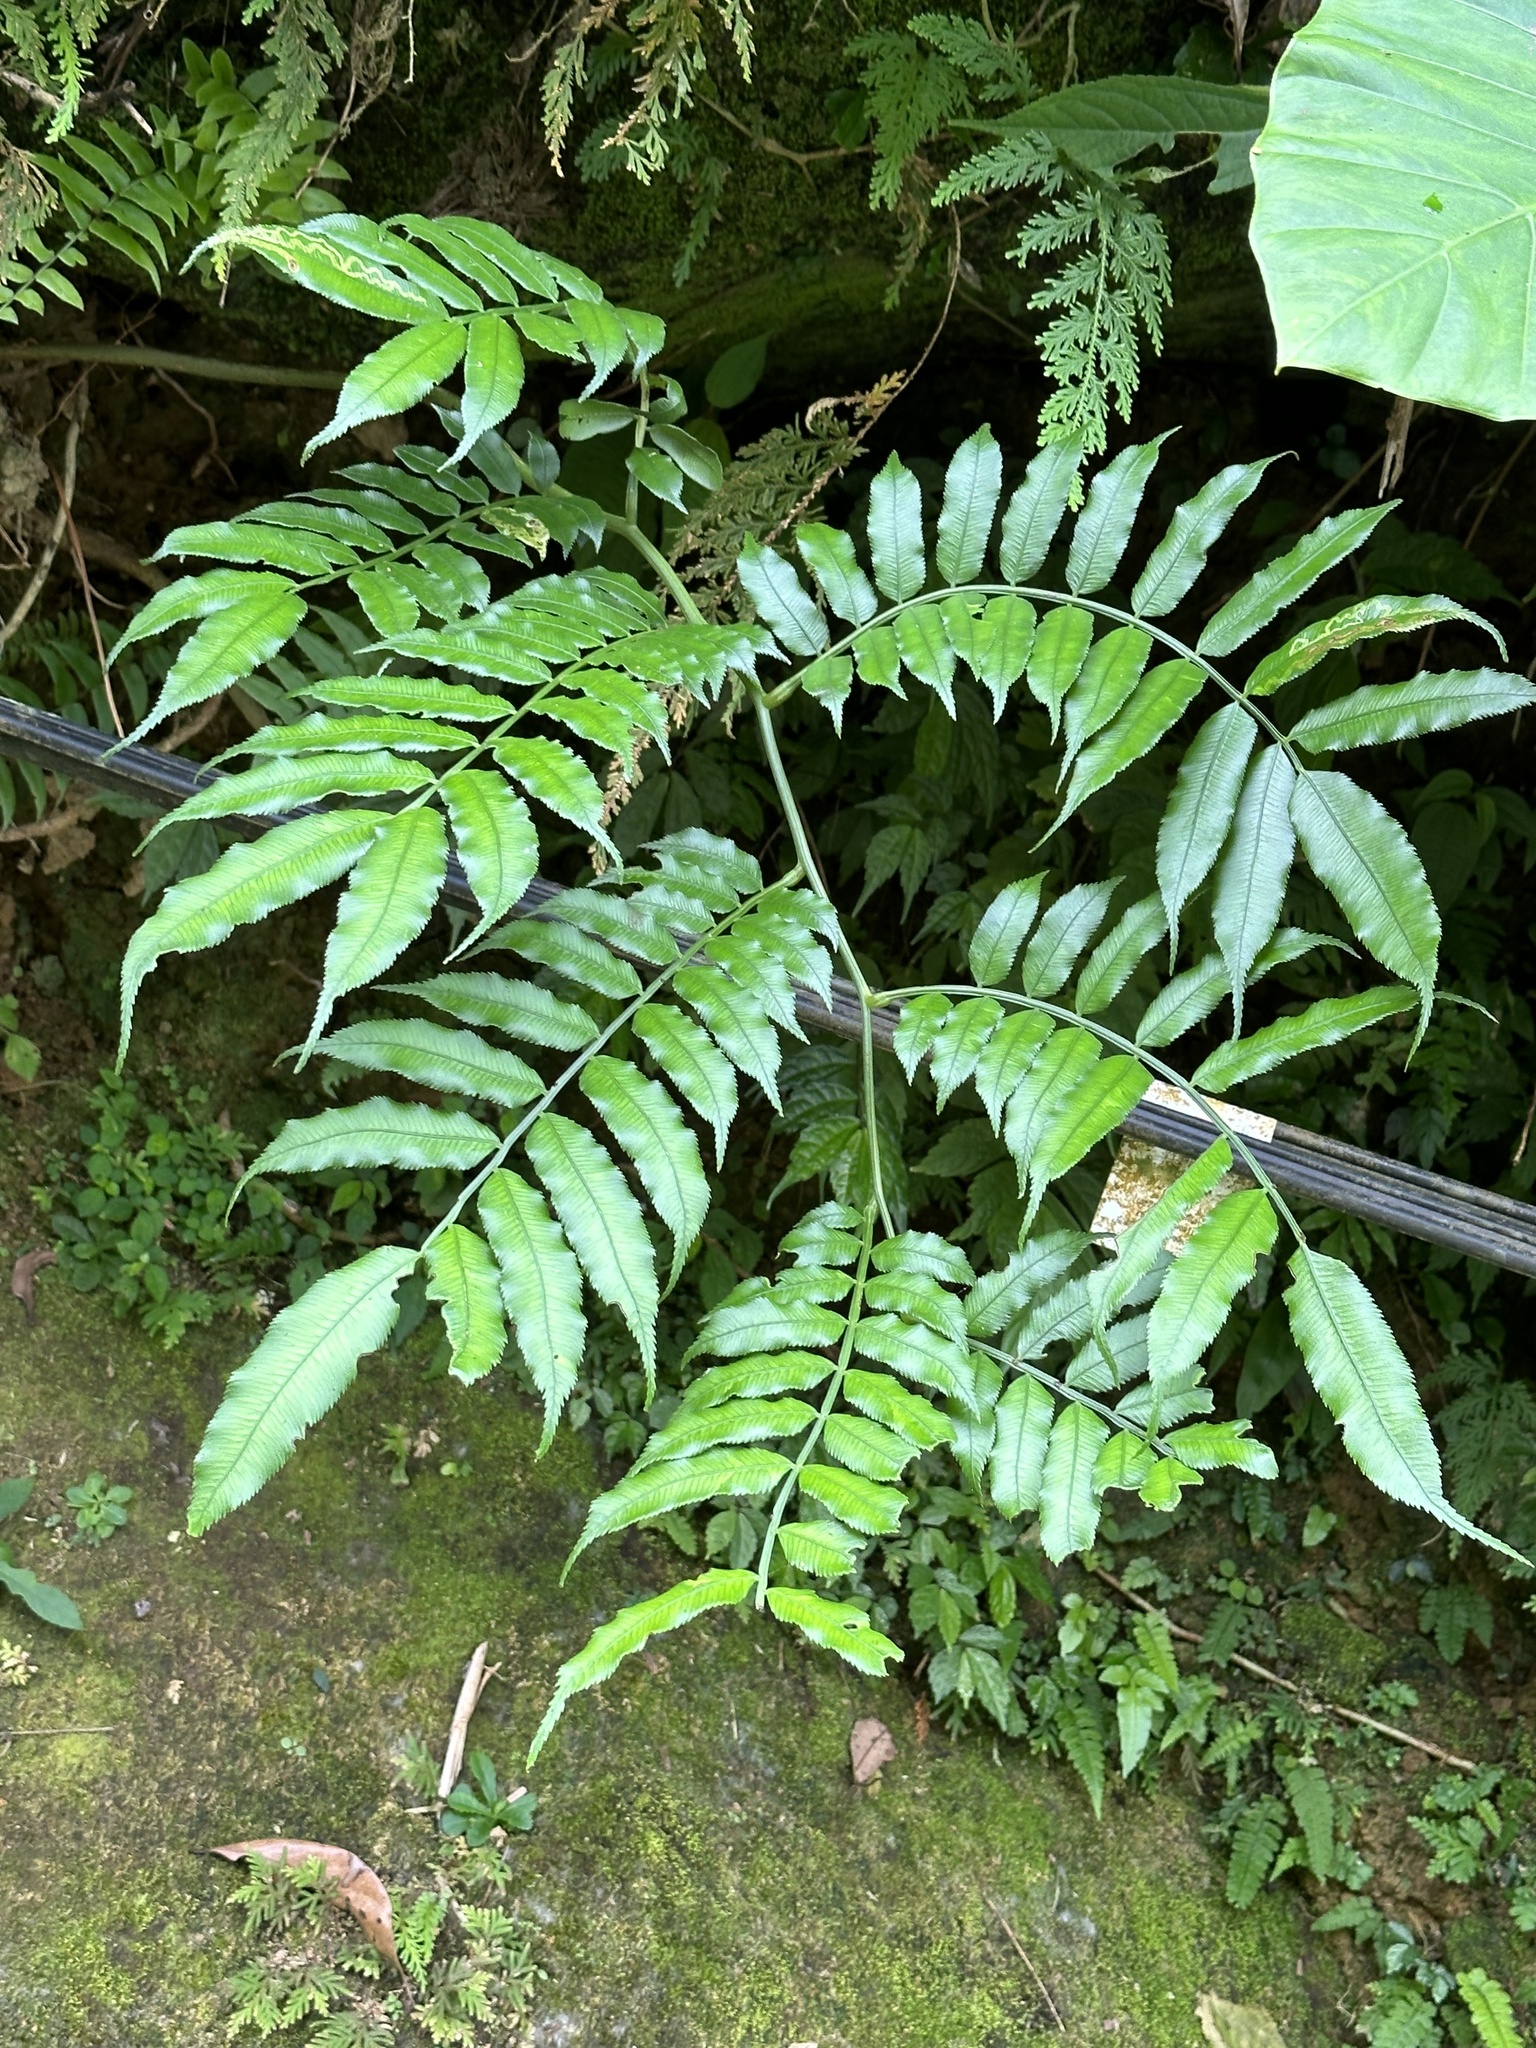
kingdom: Plantae
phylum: Tracheophyta
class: Polypodiopsida
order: Marattiales
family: Marattiaceae
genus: Angiopteris
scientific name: Angiopteris lygodiifolia
